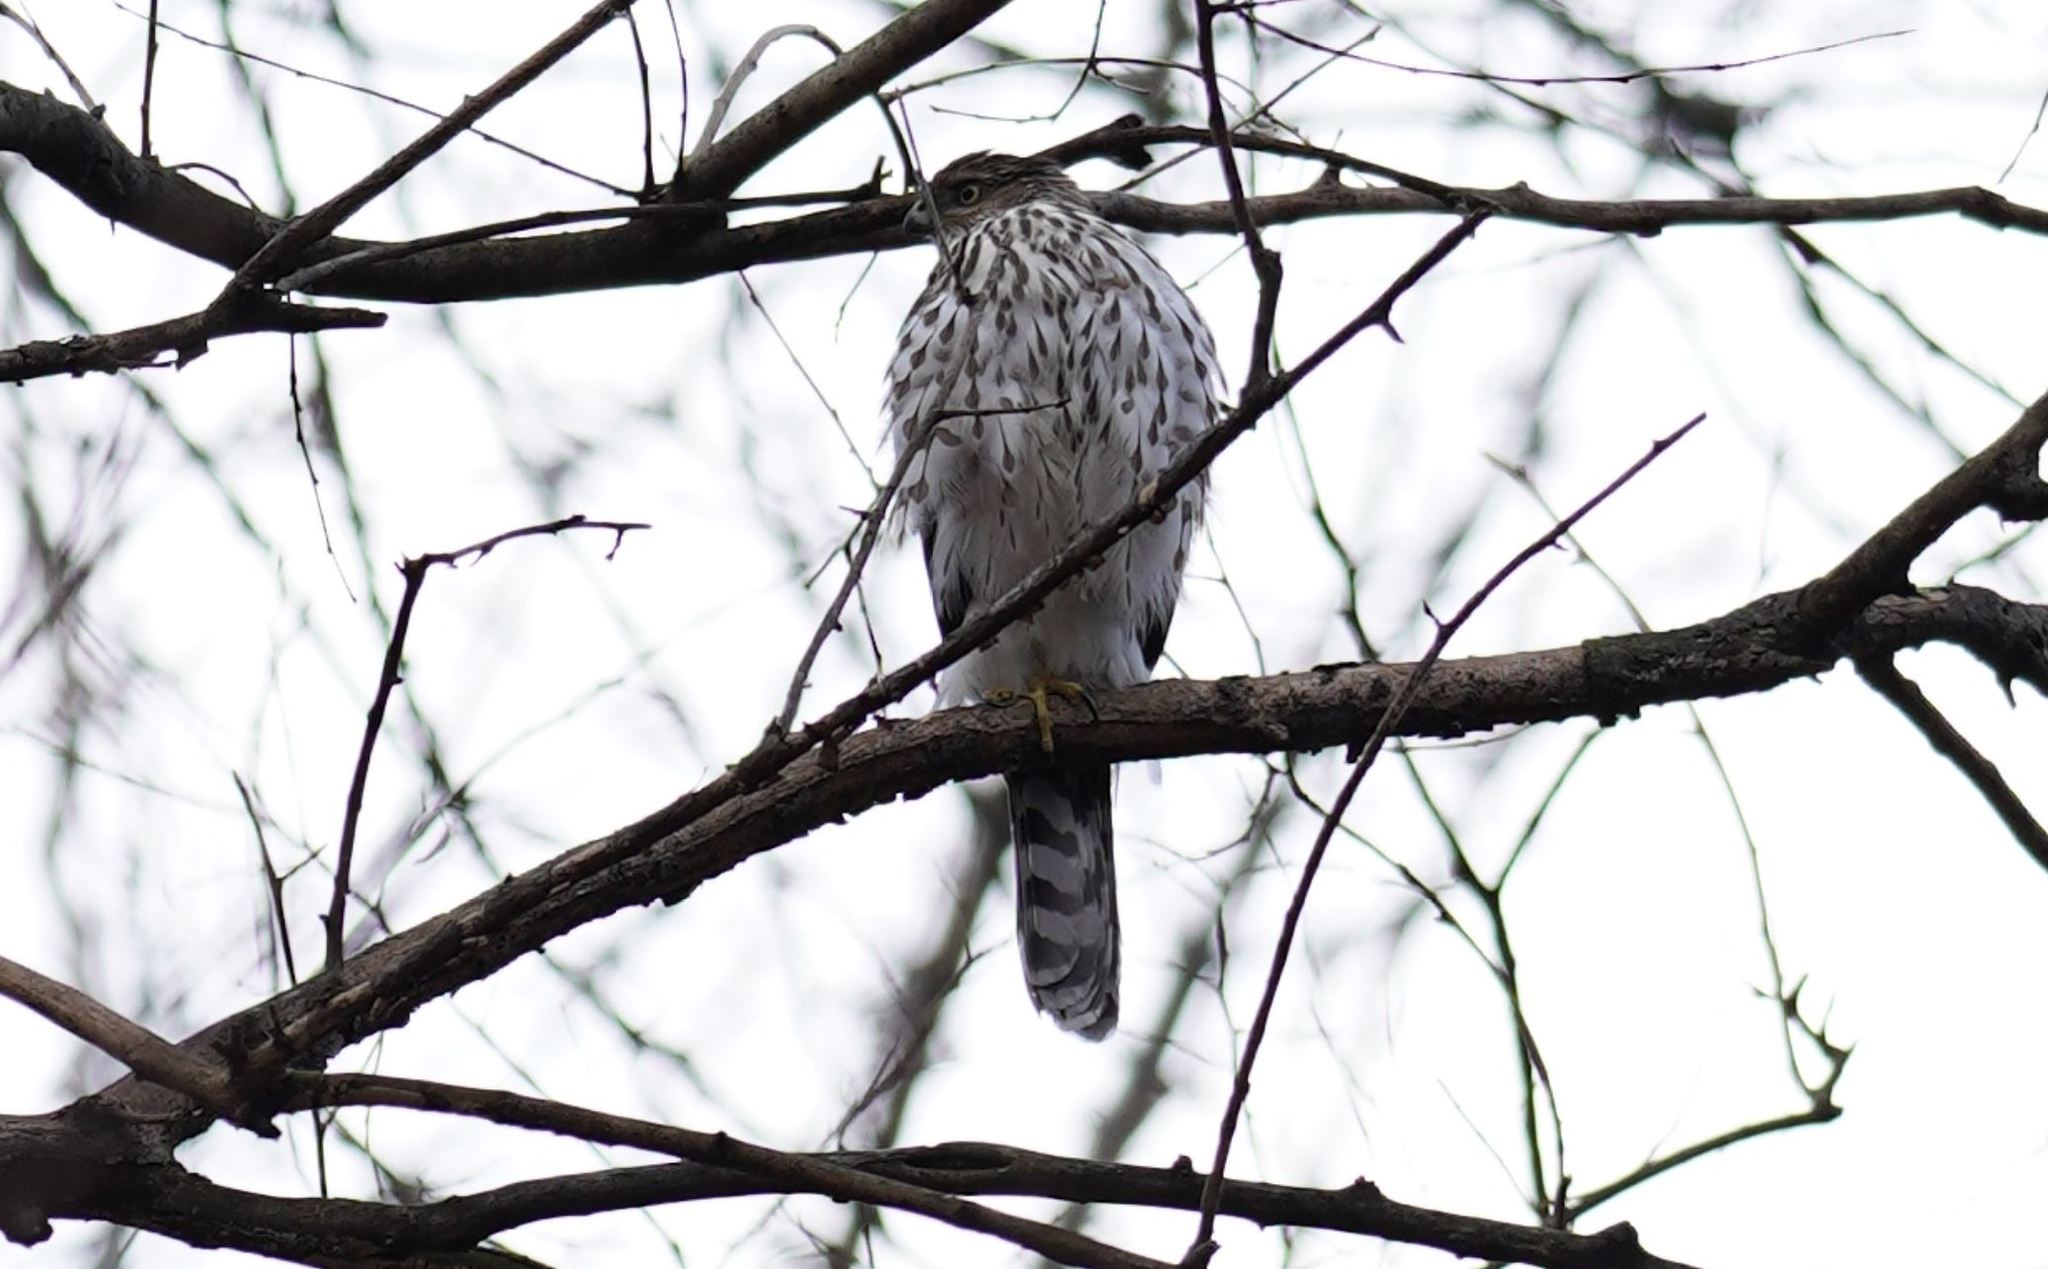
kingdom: Animalia
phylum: Chordata
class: Aves
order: Accipitriformes
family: Accipitridae
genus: Accipiter
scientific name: Accipiter cooperii
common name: Cooper's hawk
